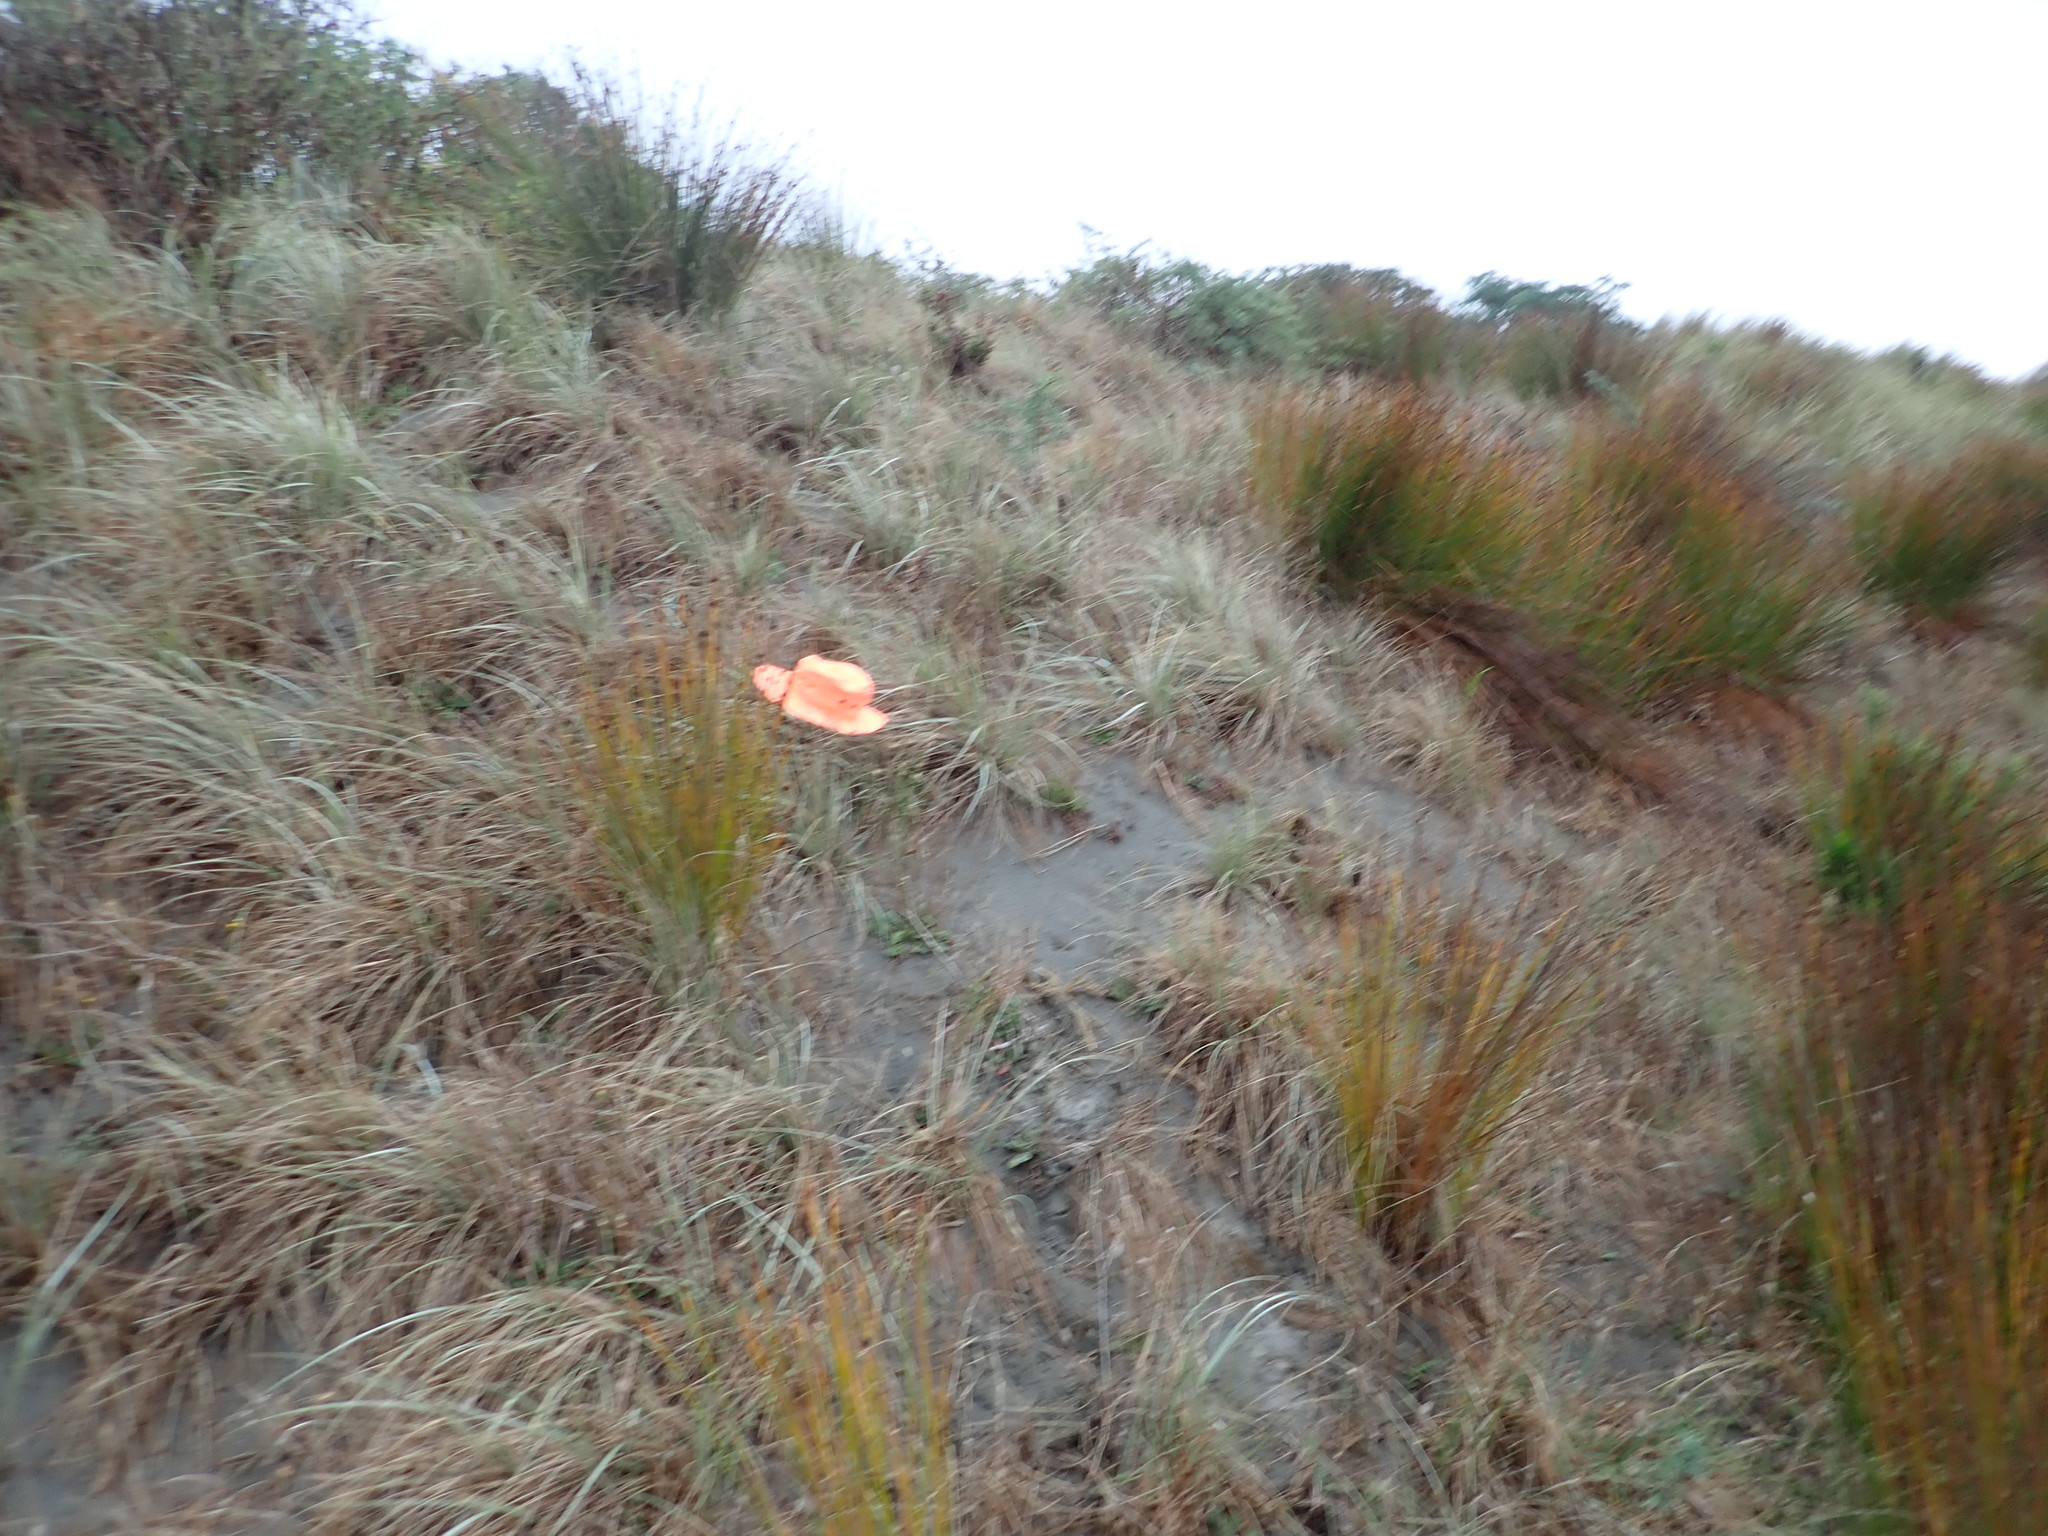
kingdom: Plantae
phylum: Tracheophyta
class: Liliopsida
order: Poales
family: Poaceae
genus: Spinifex
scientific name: Spinifex sericeus
